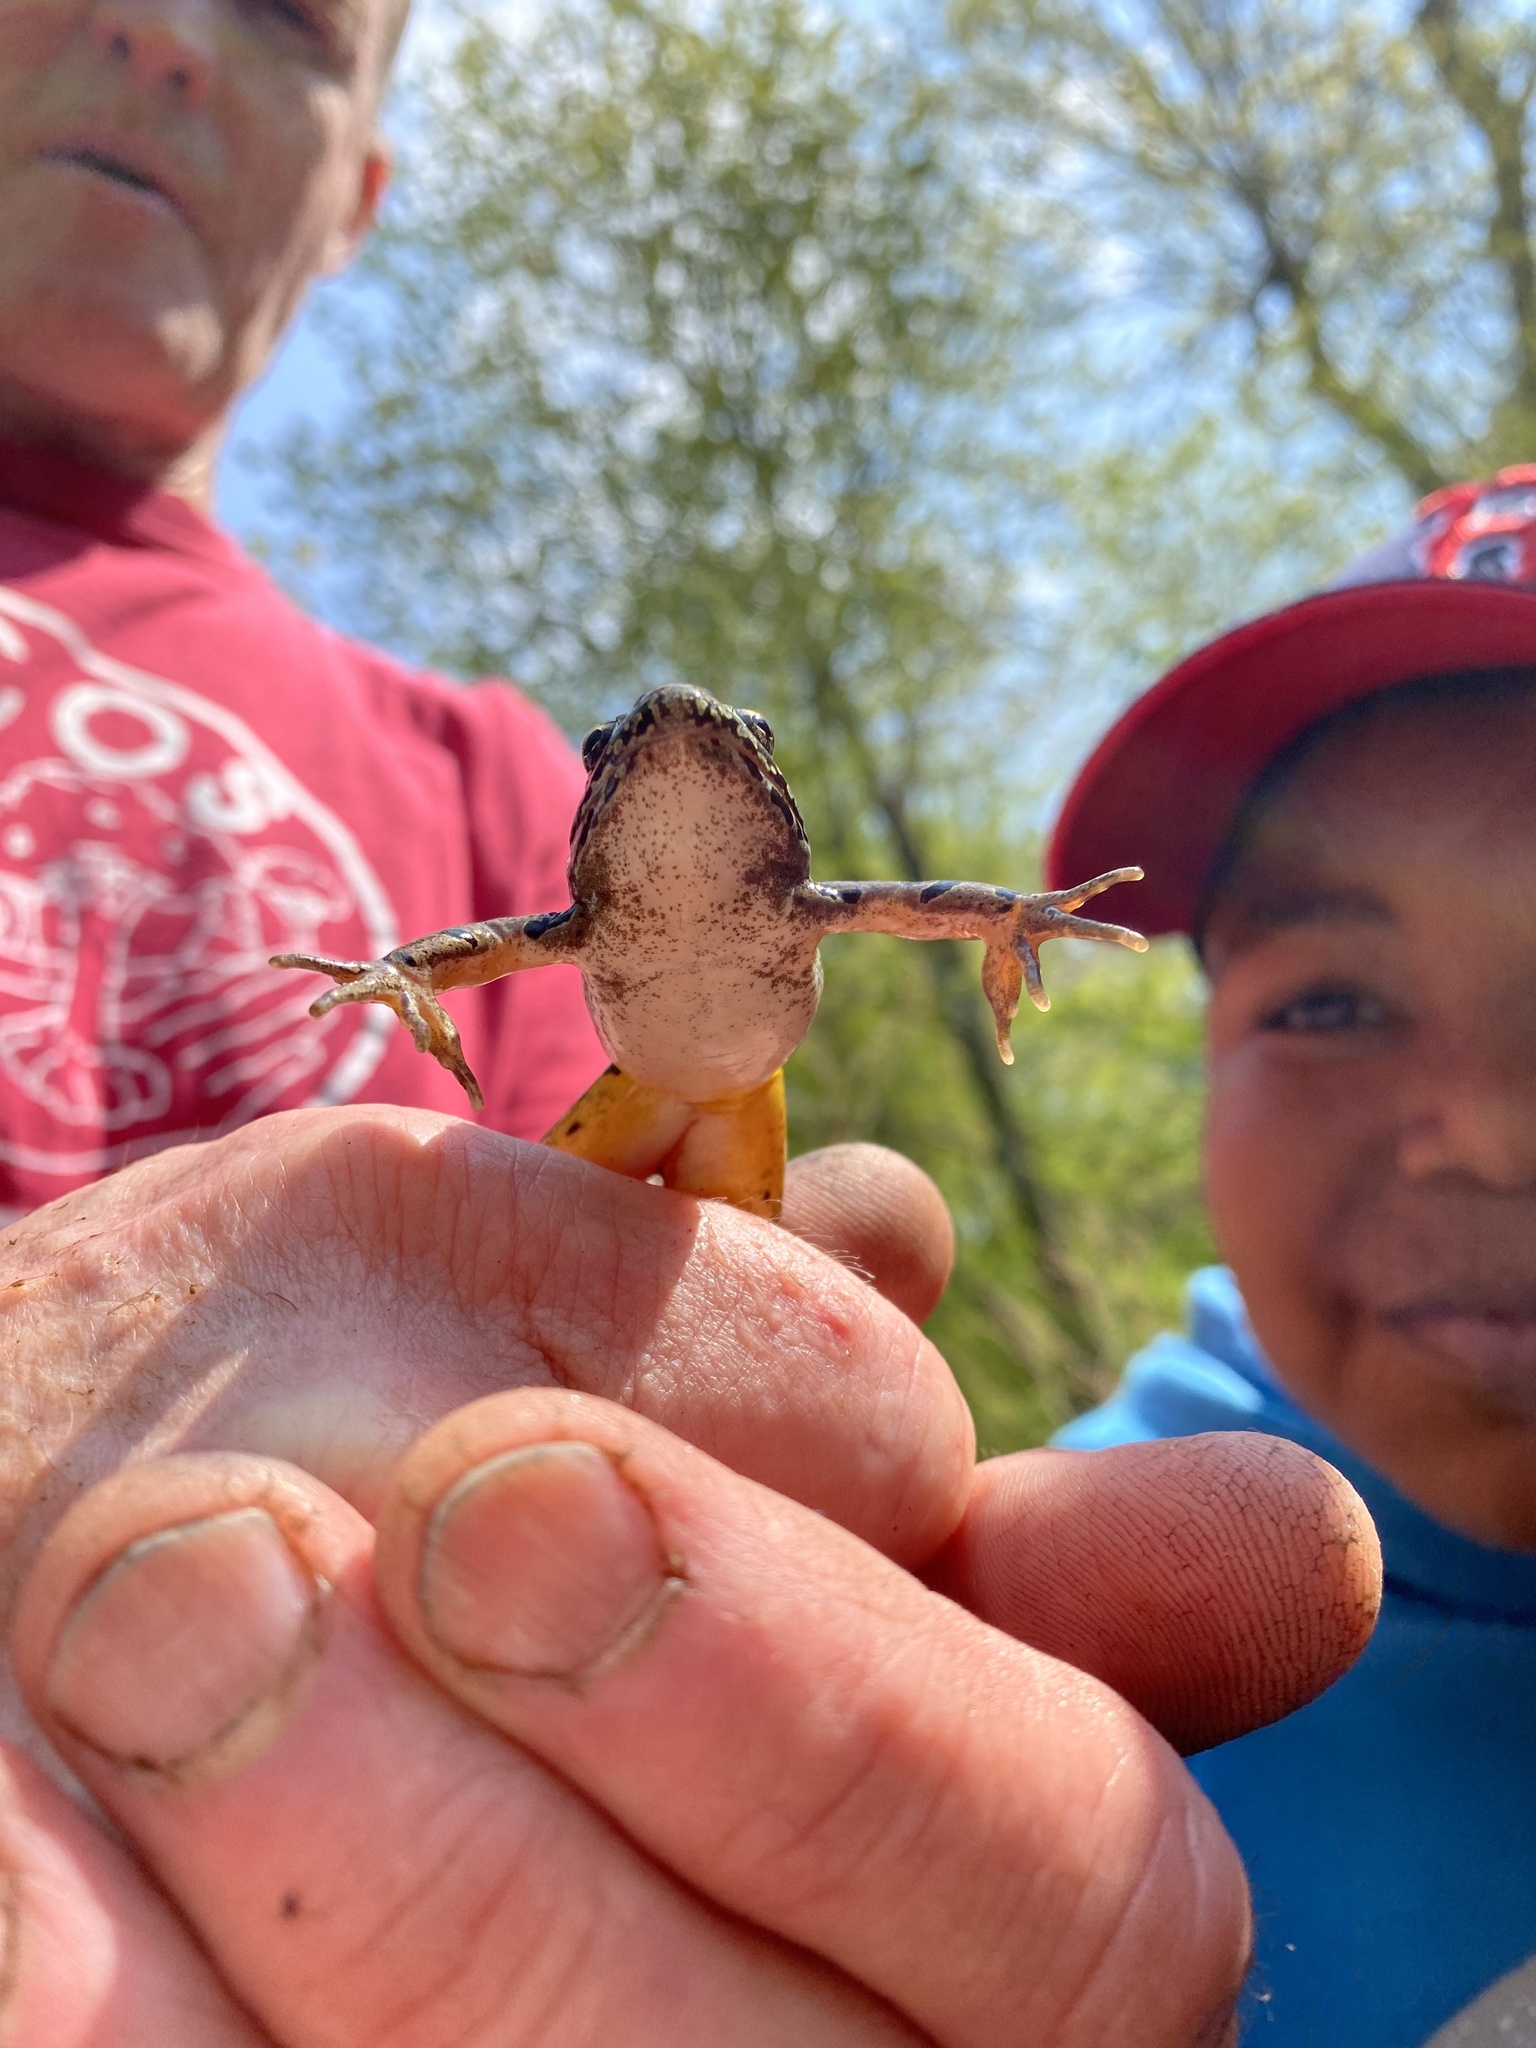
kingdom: Animalia
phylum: Chordata
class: Amphibia
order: Anura
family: Ranidae
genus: Lithobates
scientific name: Lithobates palustris
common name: Pickerel frog
